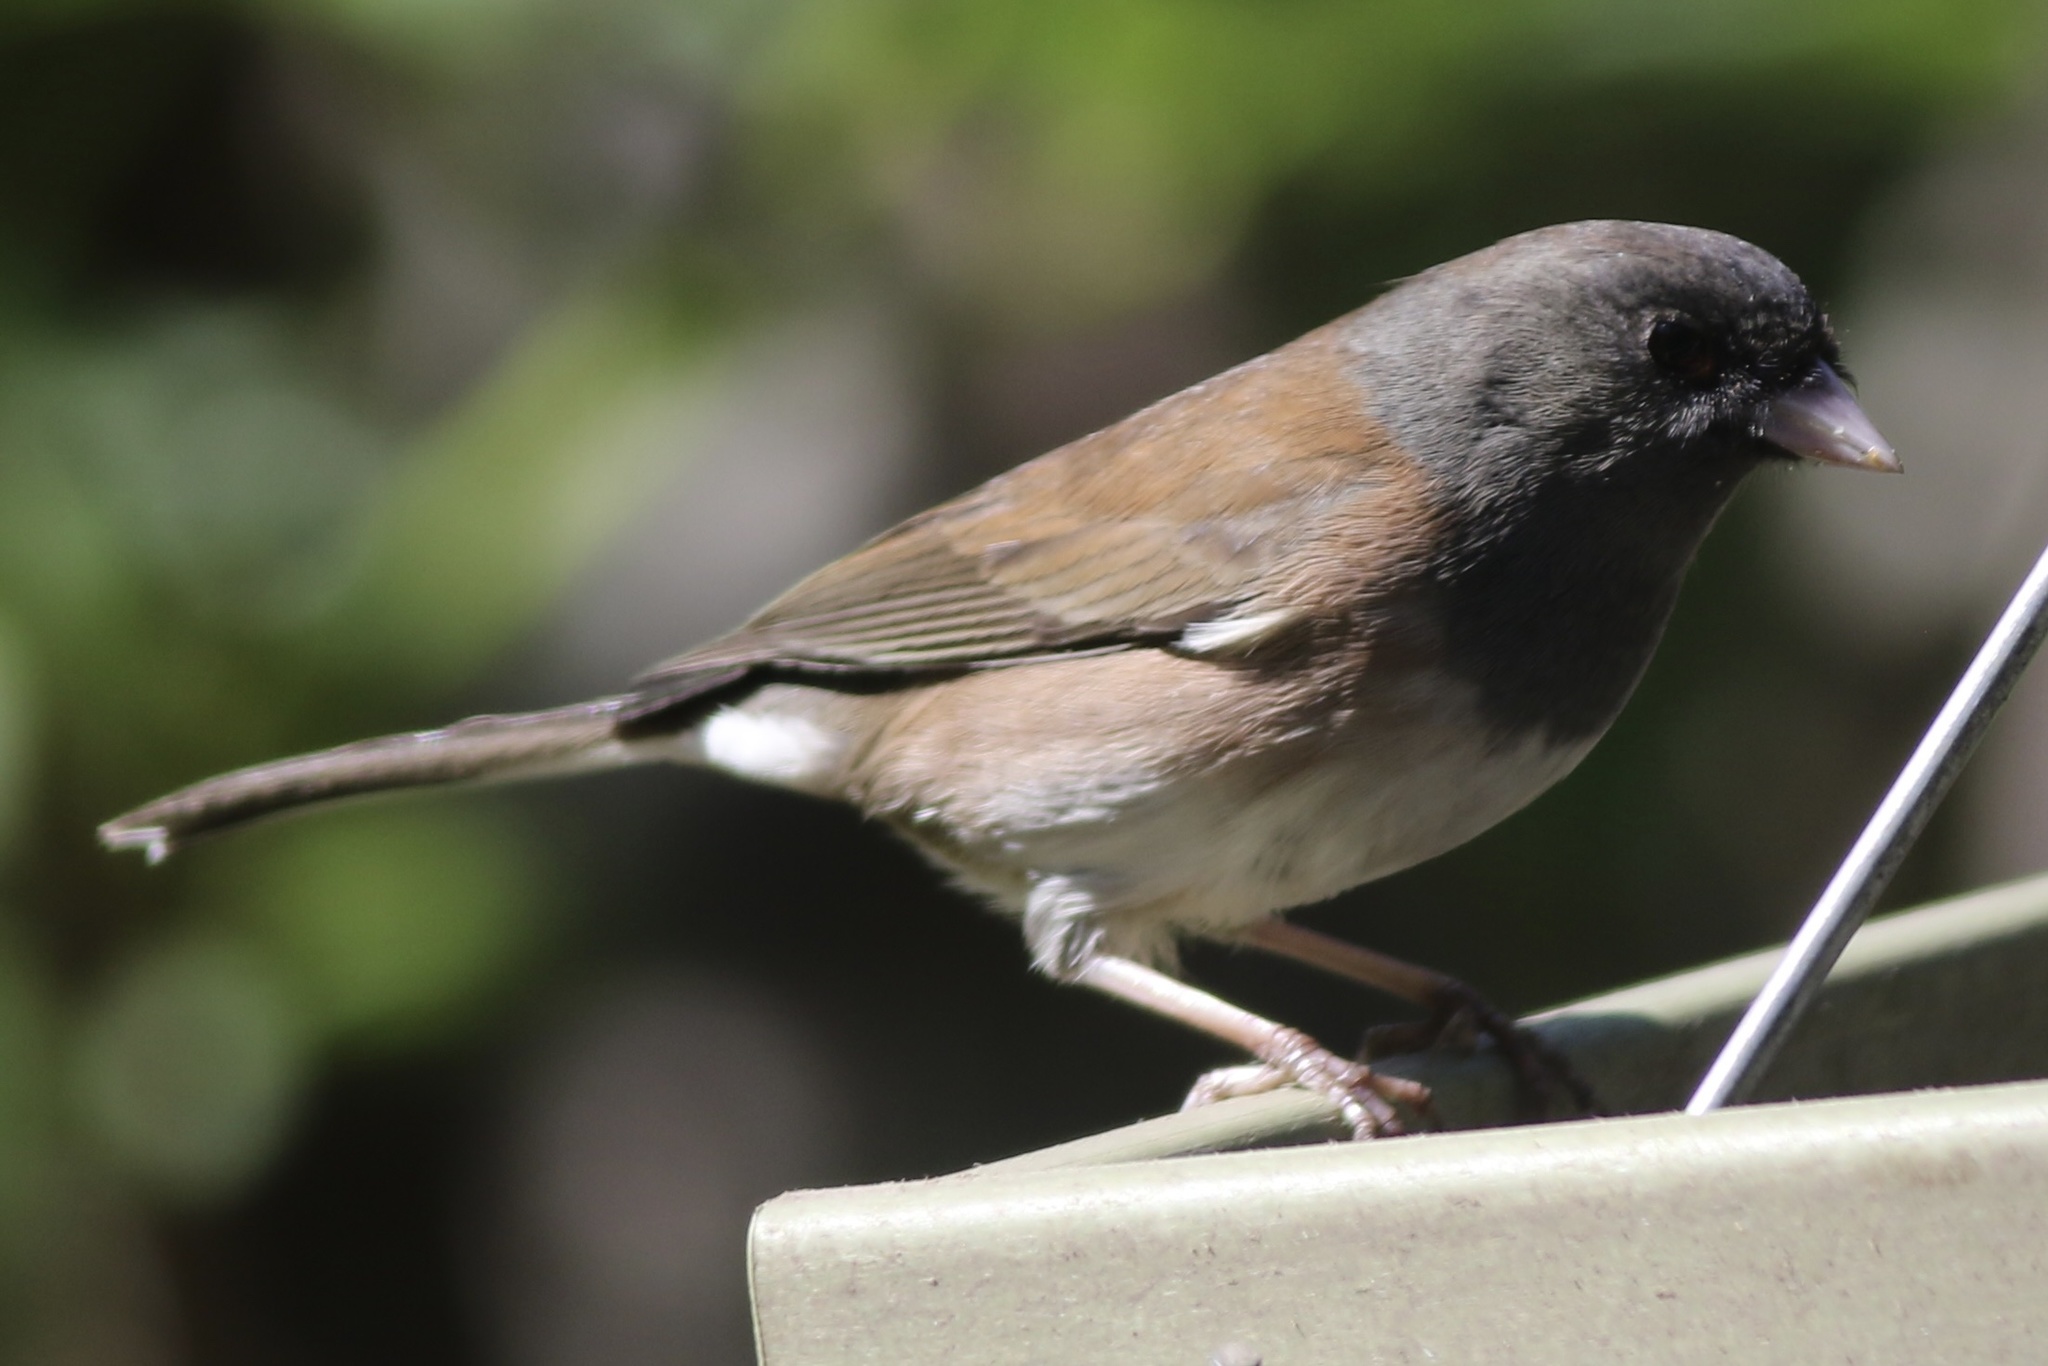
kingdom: Animalia
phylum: Chordata
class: Aves
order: Passeriformes
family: Passerellidae
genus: Junco
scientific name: Junco hyemalis
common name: Dark-eyed junco
